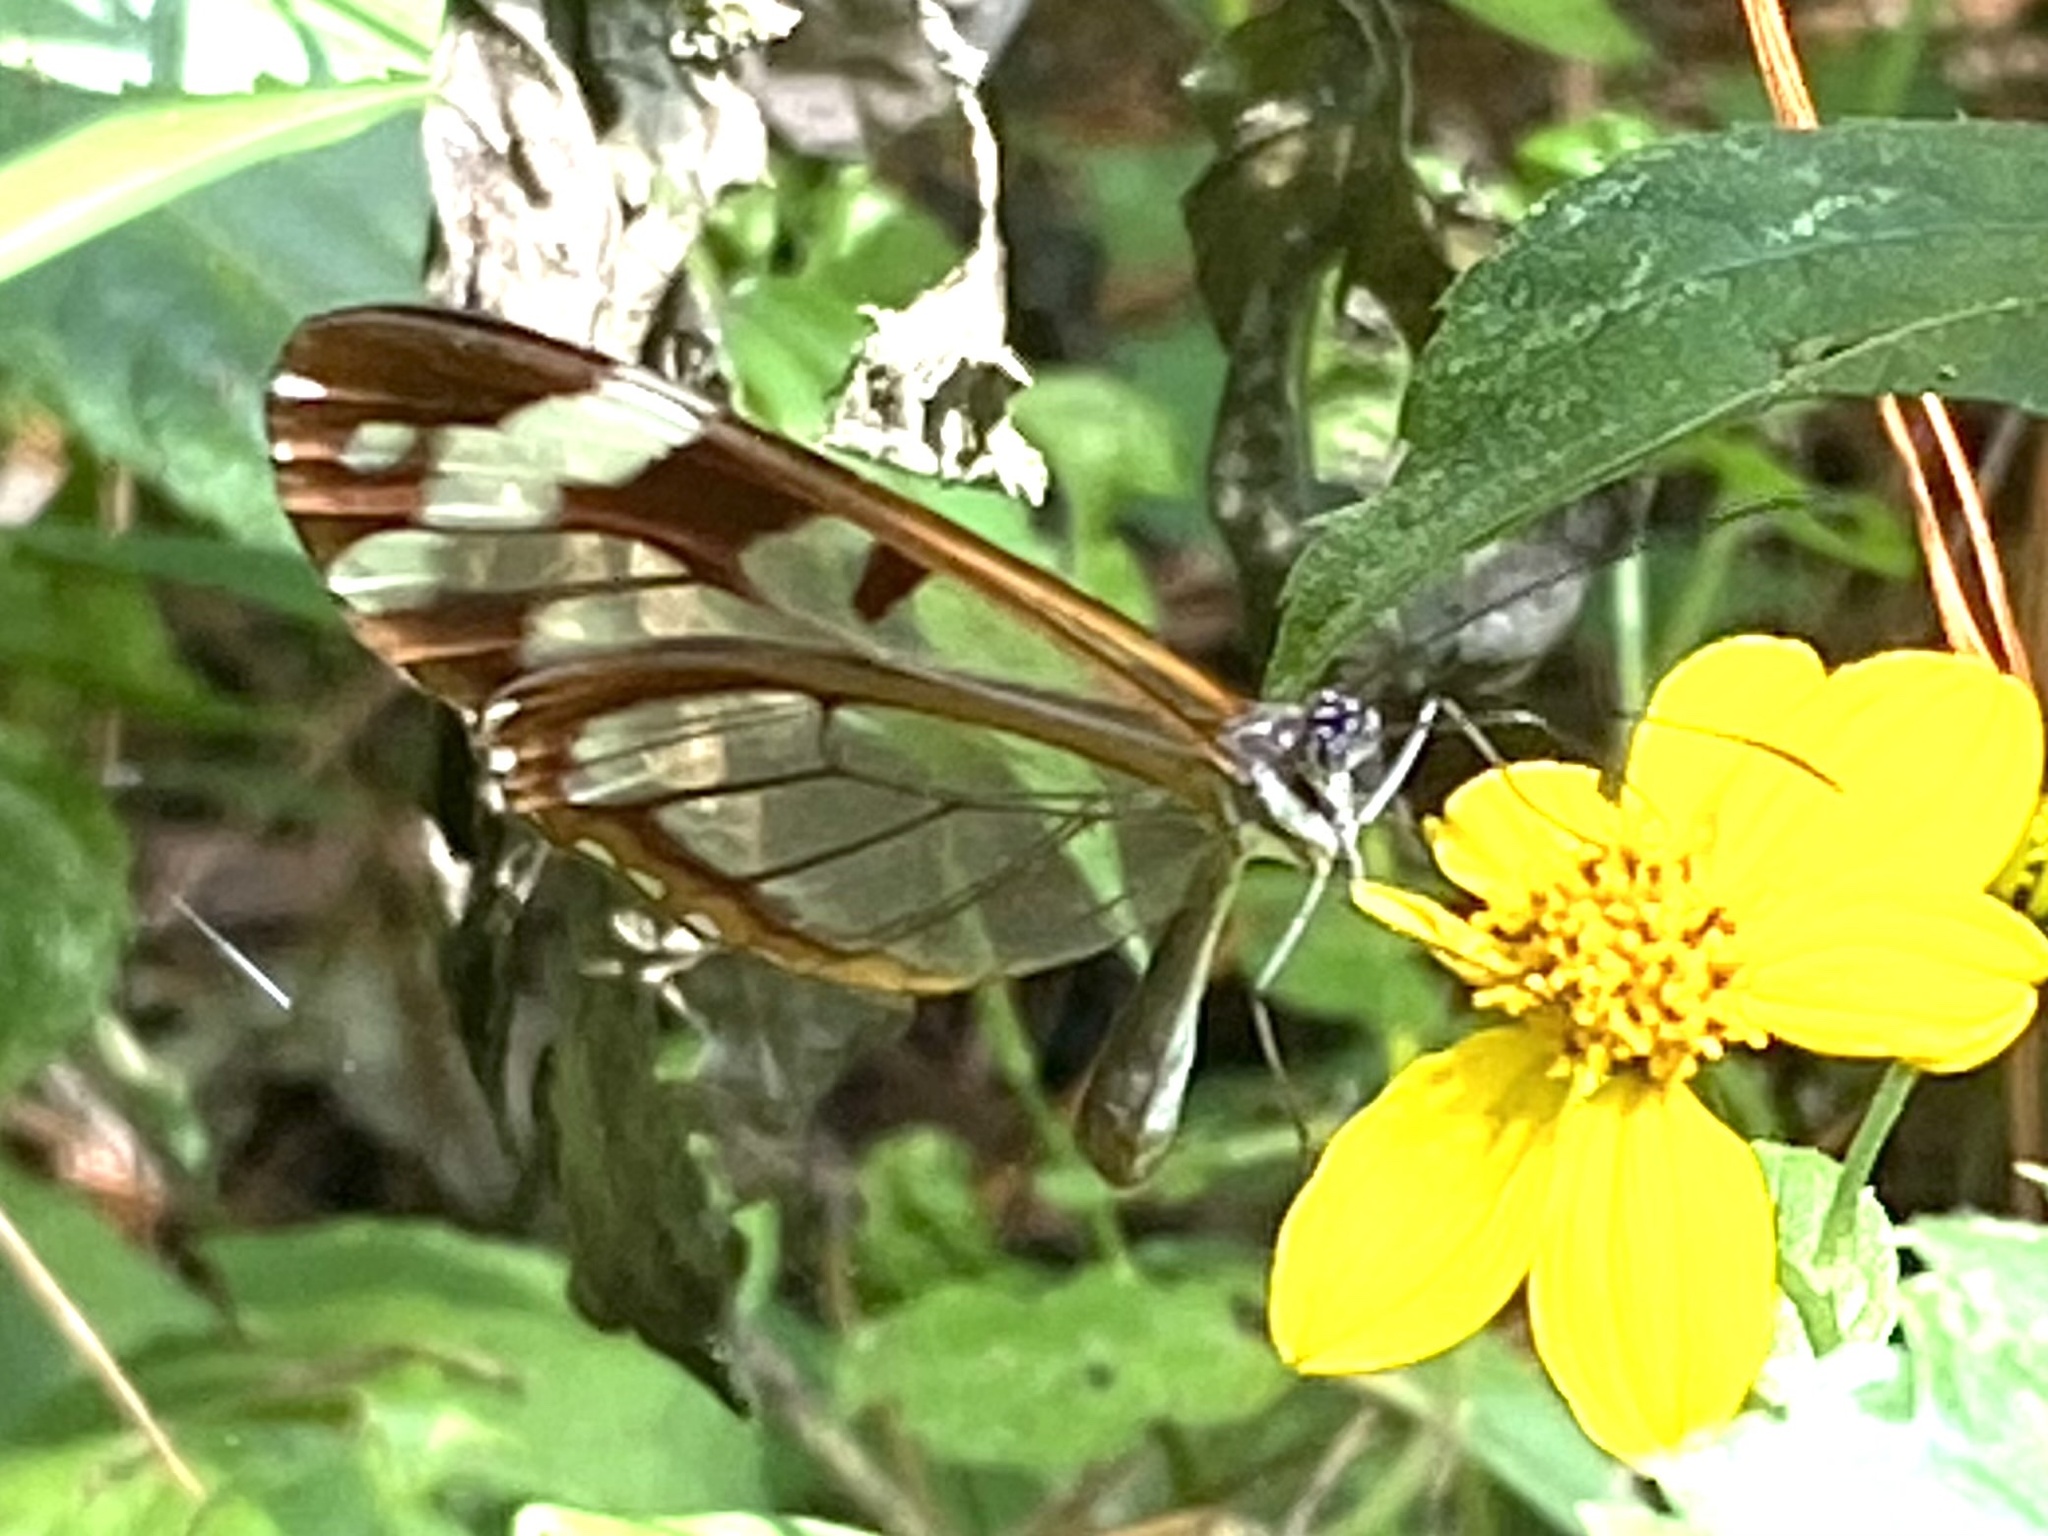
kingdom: Animalia
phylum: Arthropoda
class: Insecta
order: Lepidoptera
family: Nymphalidae
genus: Oleria
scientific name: Oleria zea
